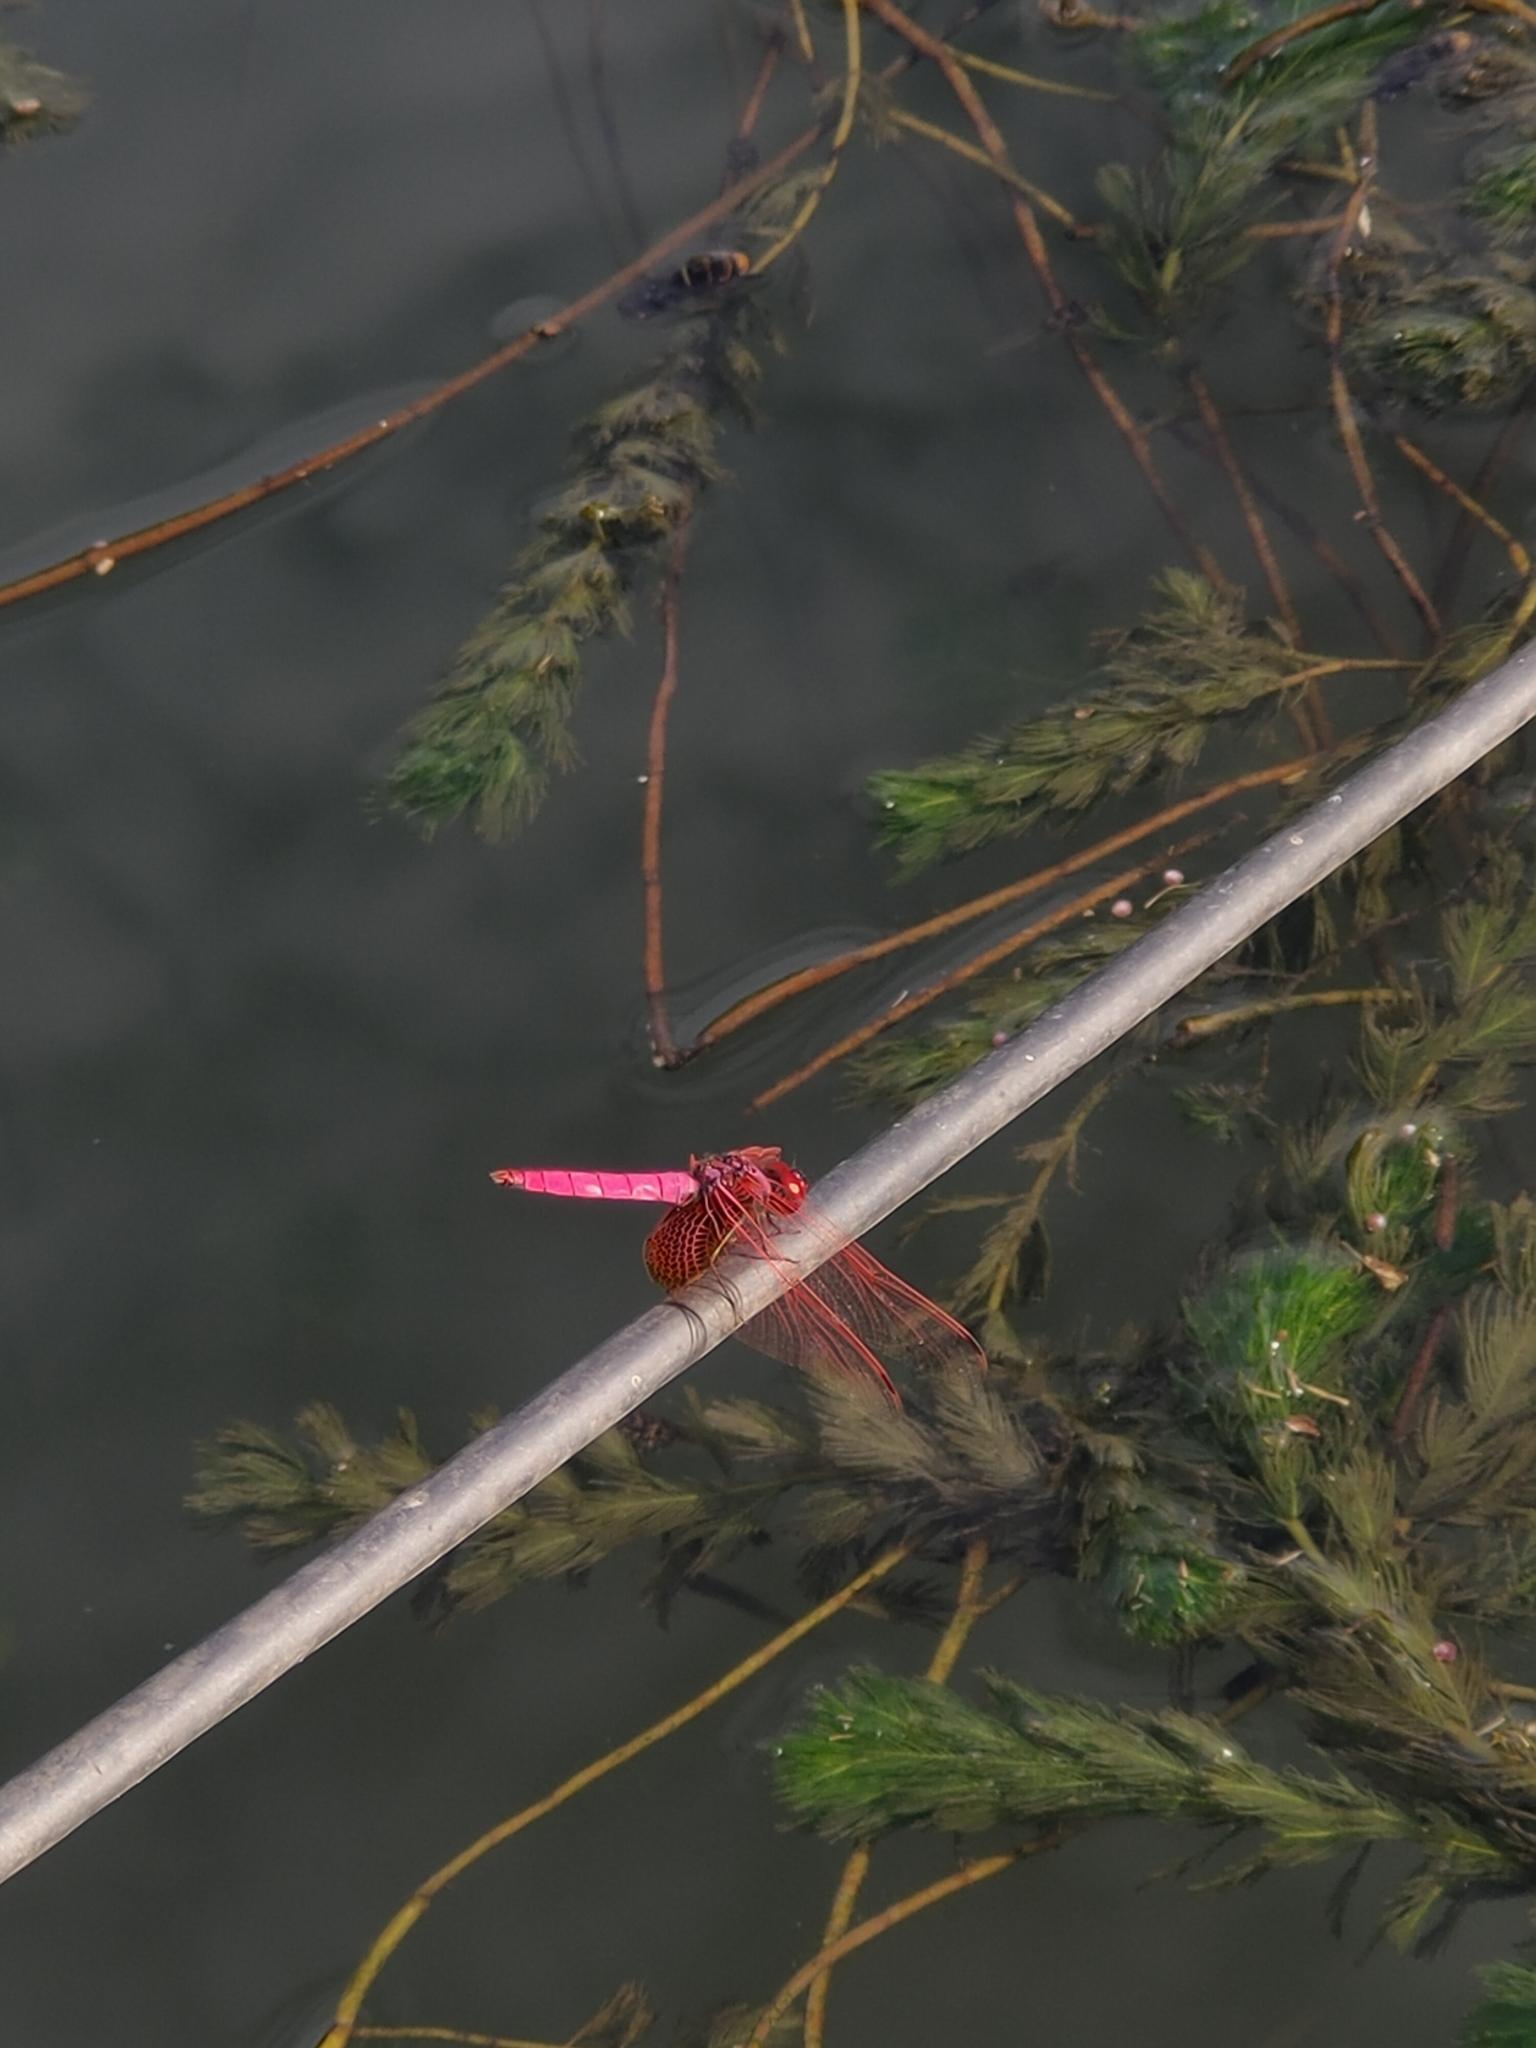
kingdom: Animalia
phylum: Arthropoda
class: Insecta
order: Odonata
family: Libellulidae
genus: Trithemis
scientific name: Trithemis aurora
